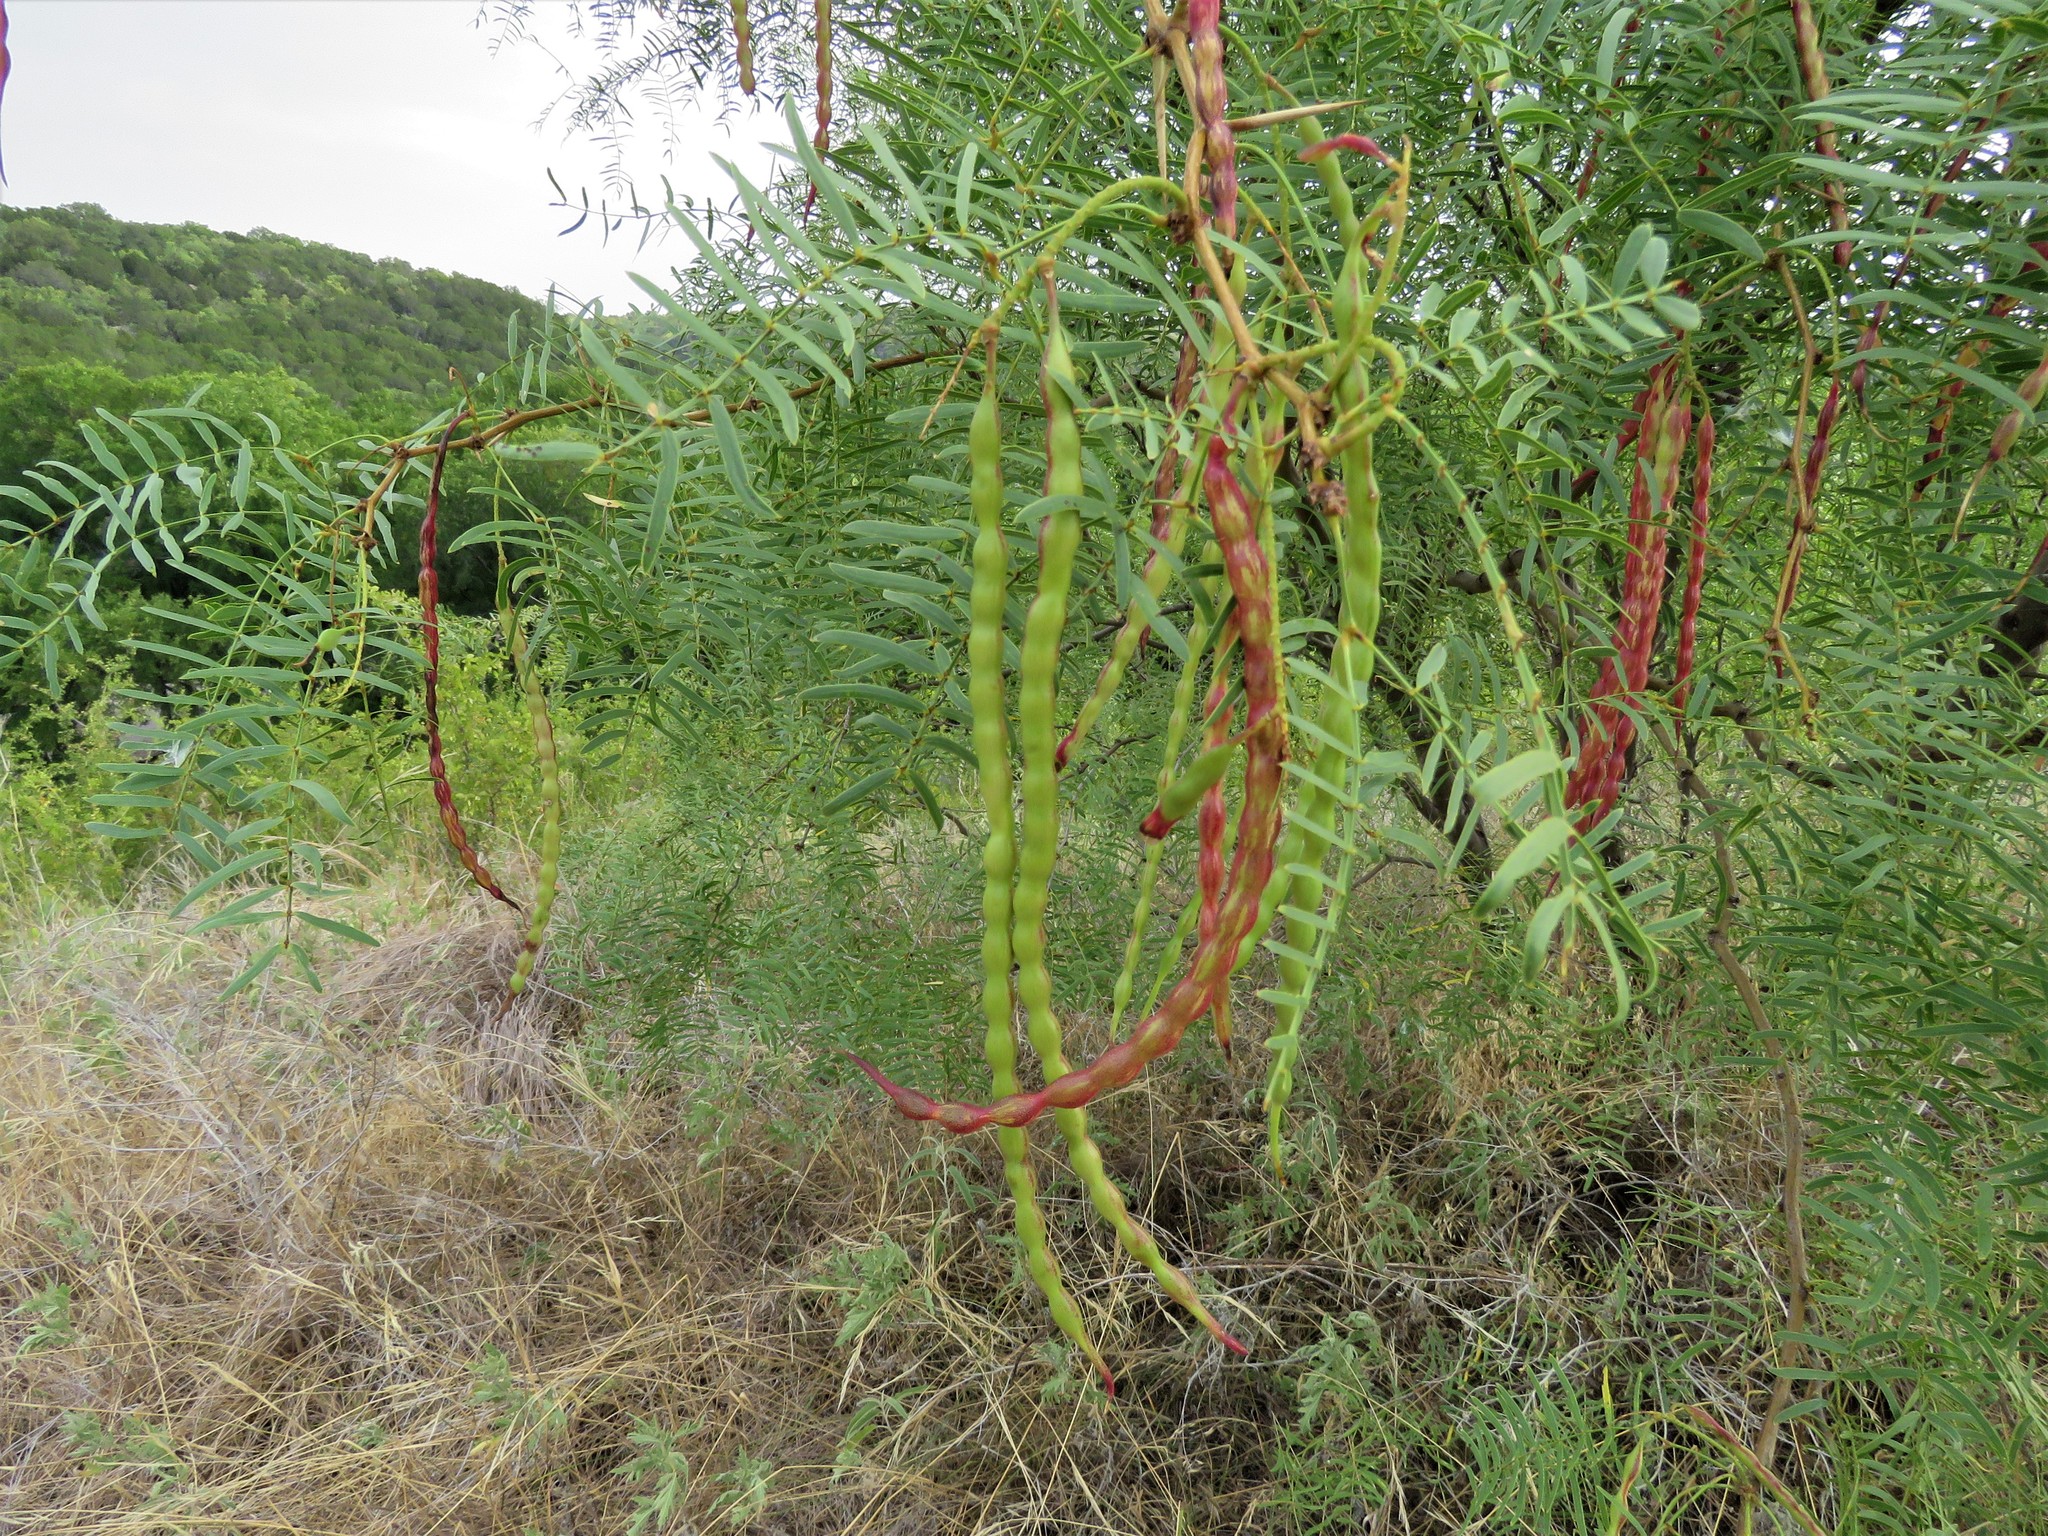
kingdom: Plantae
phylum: Tracheophyta
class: Magnoliopsida
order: Fabales
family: Fabaceae
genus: Prosopis
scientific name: Prosopis glandulosa
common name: Honey mesquite
